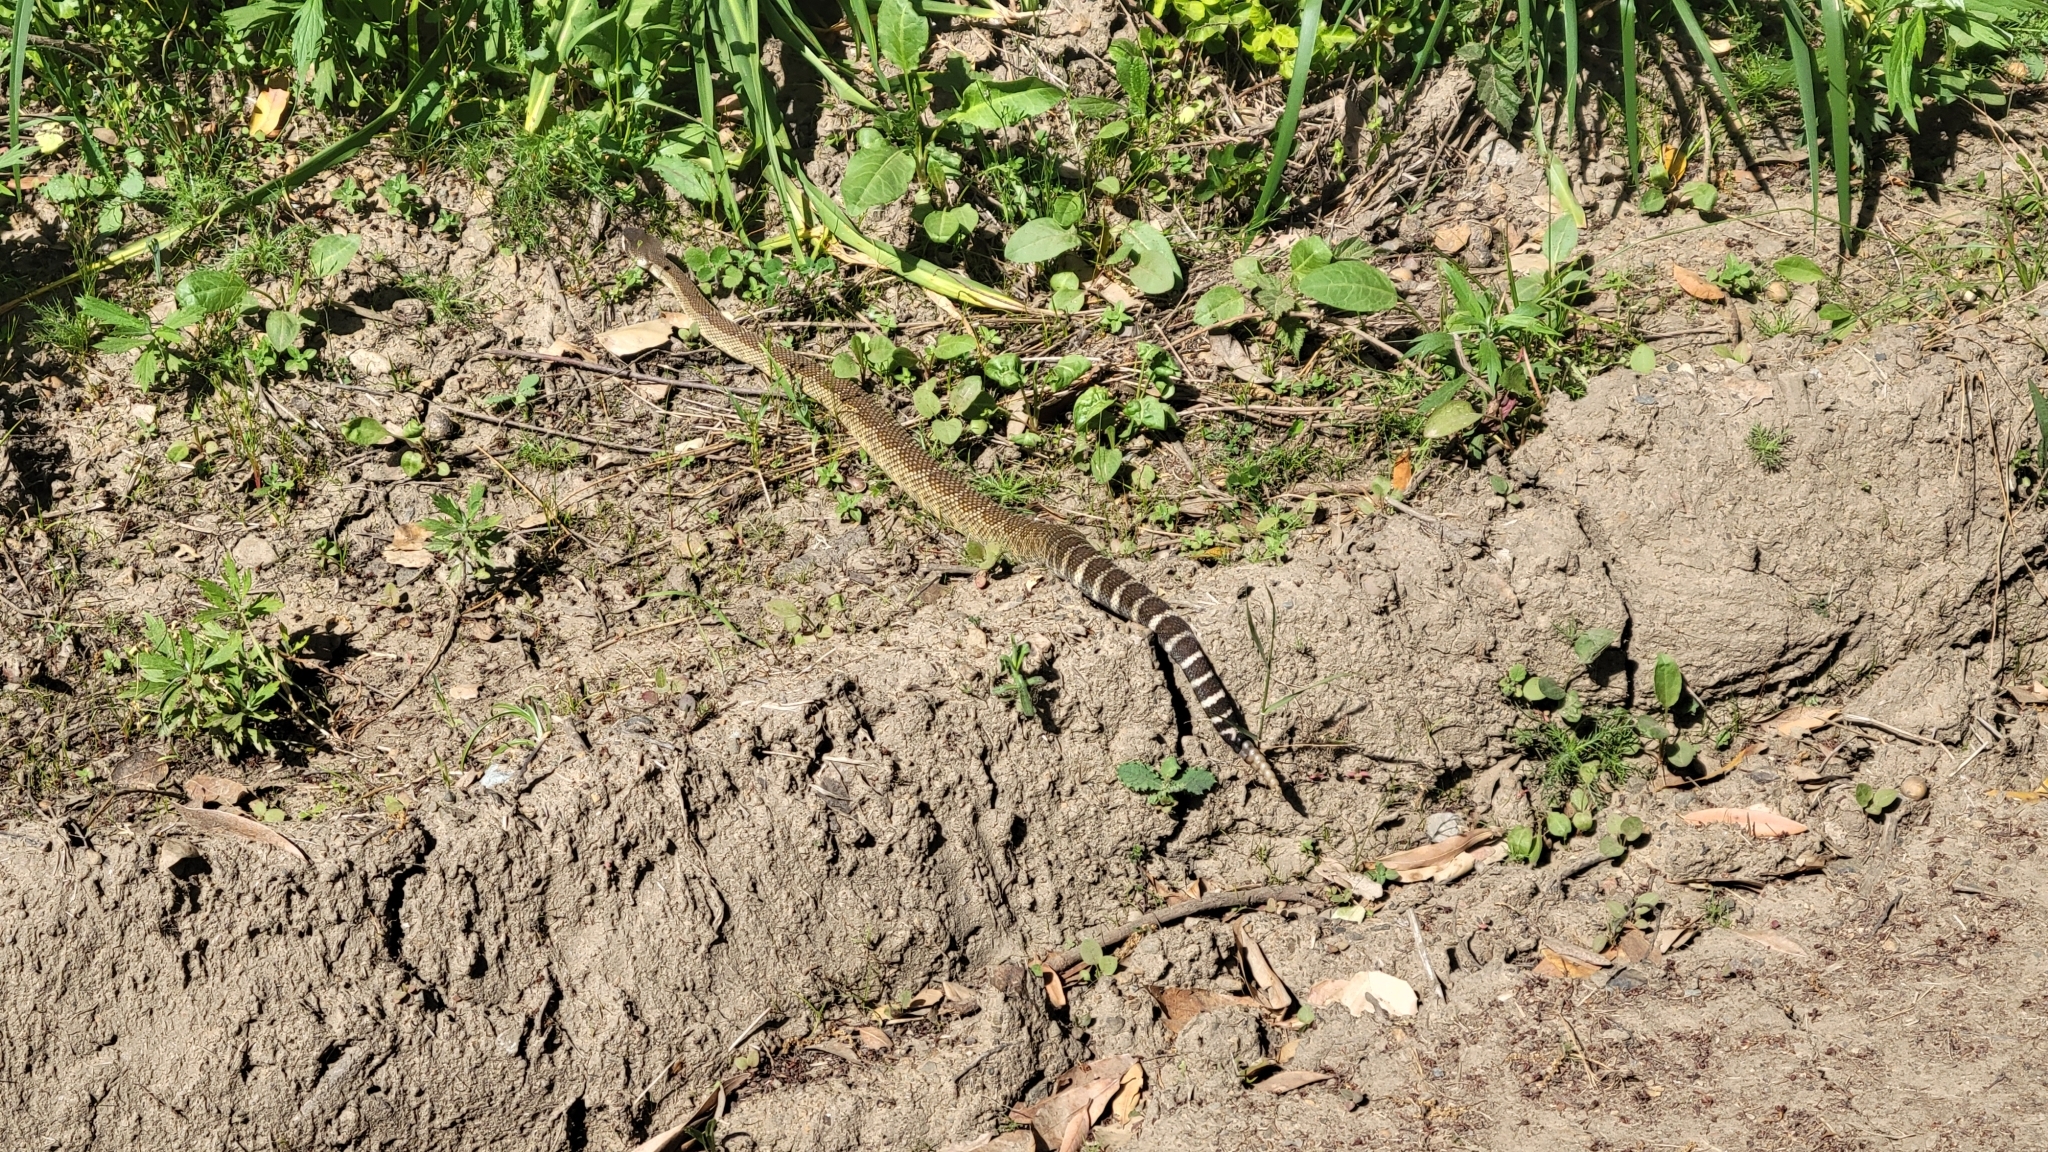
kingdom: Animalia
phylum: Chordata
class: Squamata
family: Viperidae
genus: Crotalus
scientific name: Crotalus oreganus
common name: Abyssus
